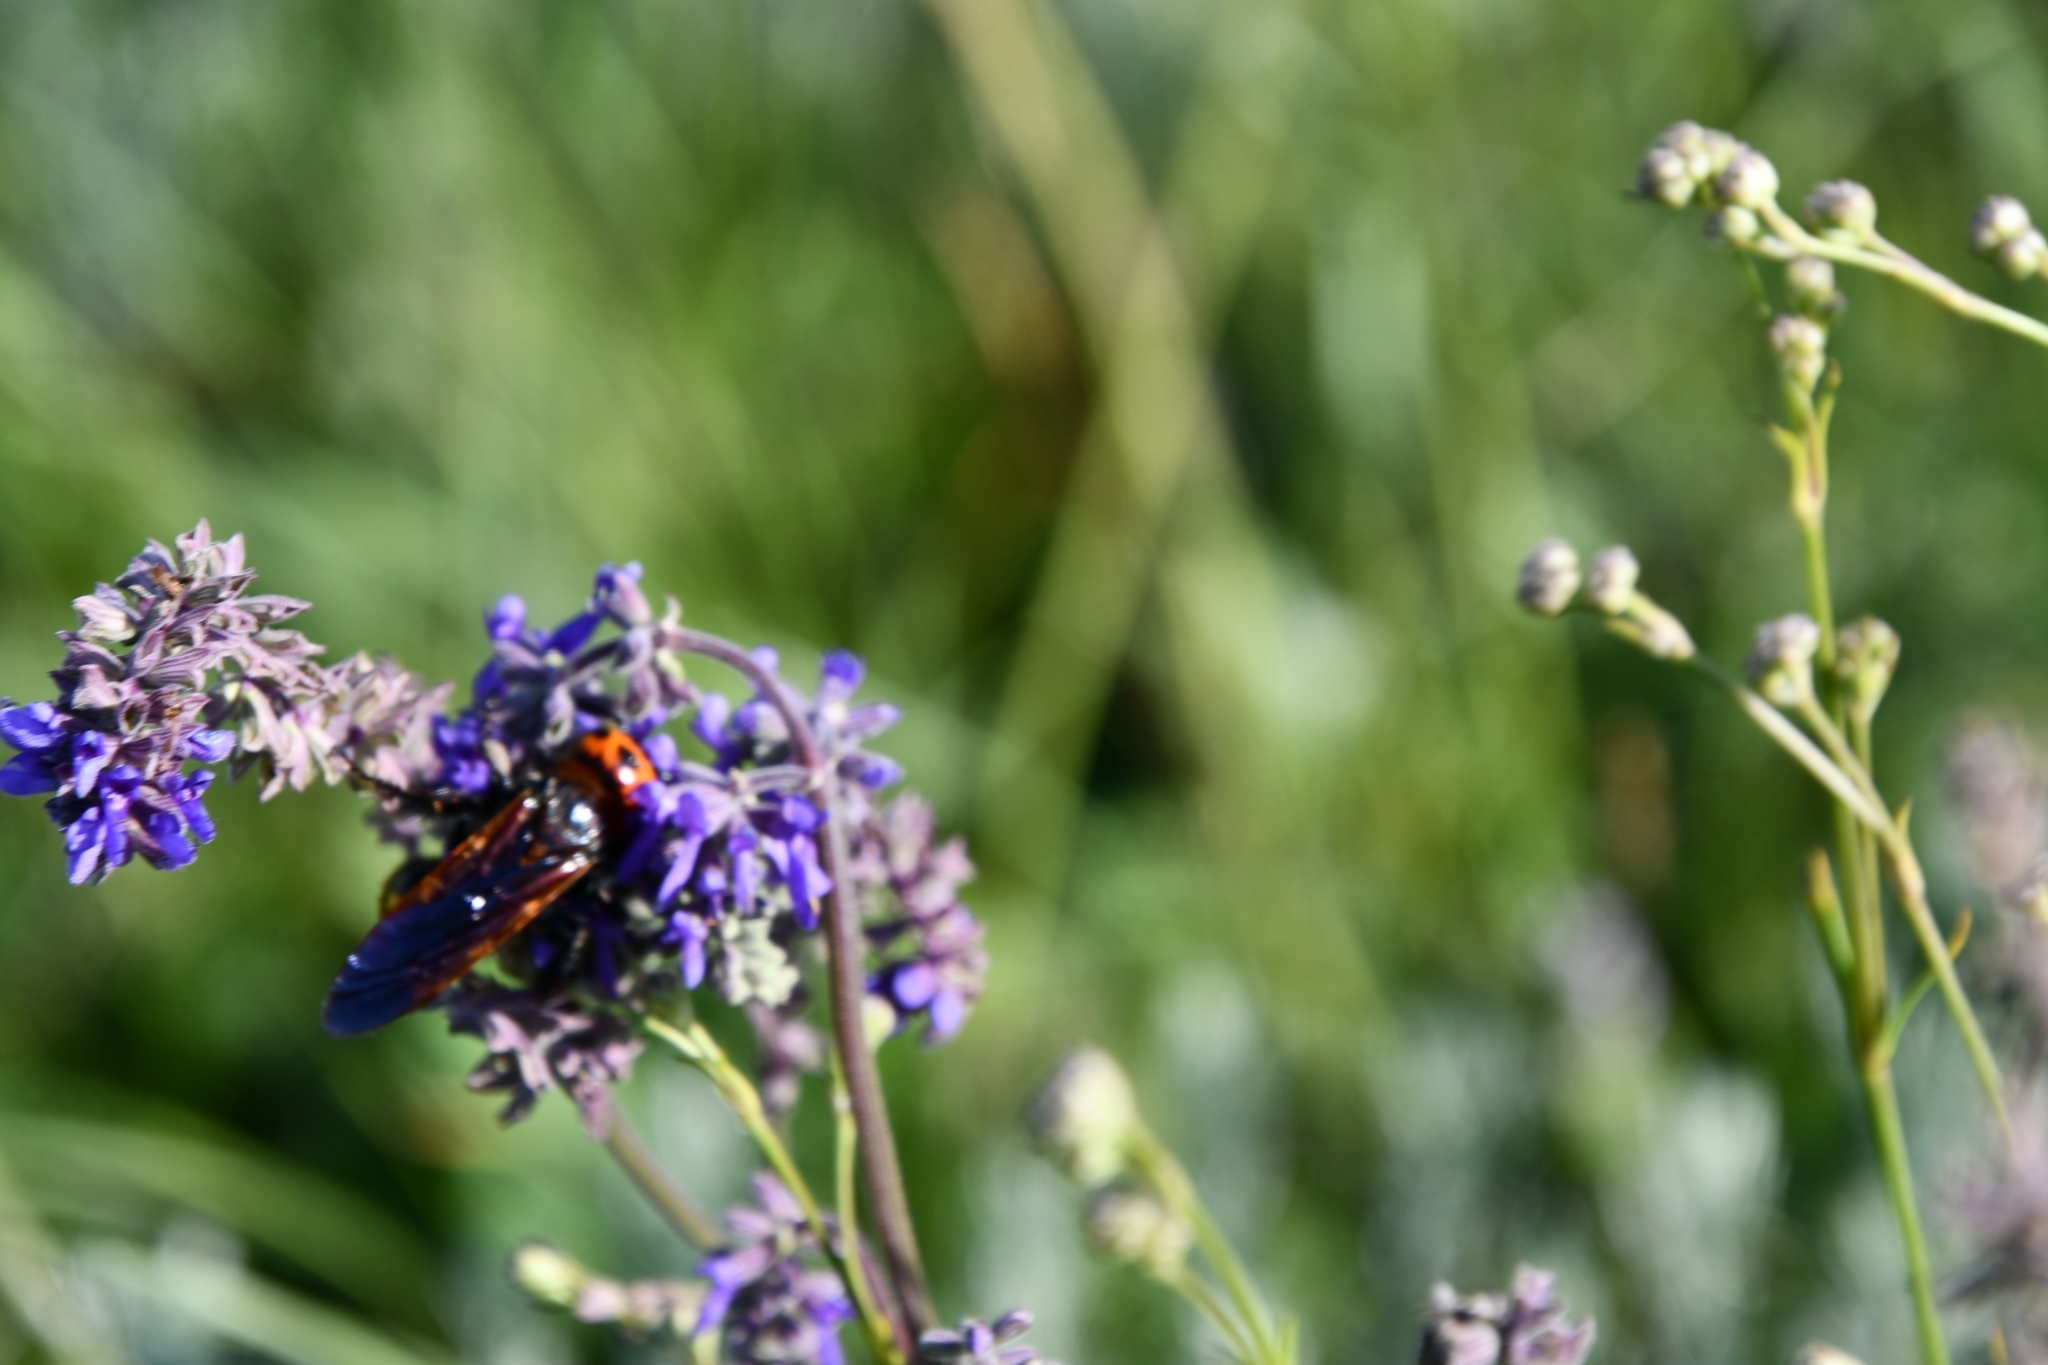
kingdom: Animalia
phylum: Arthropoda
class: Insecta
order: Hymenoptera
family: Scoliidae
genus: Megascolia
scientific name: Megascolia maculata
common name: Mammoth wasp
